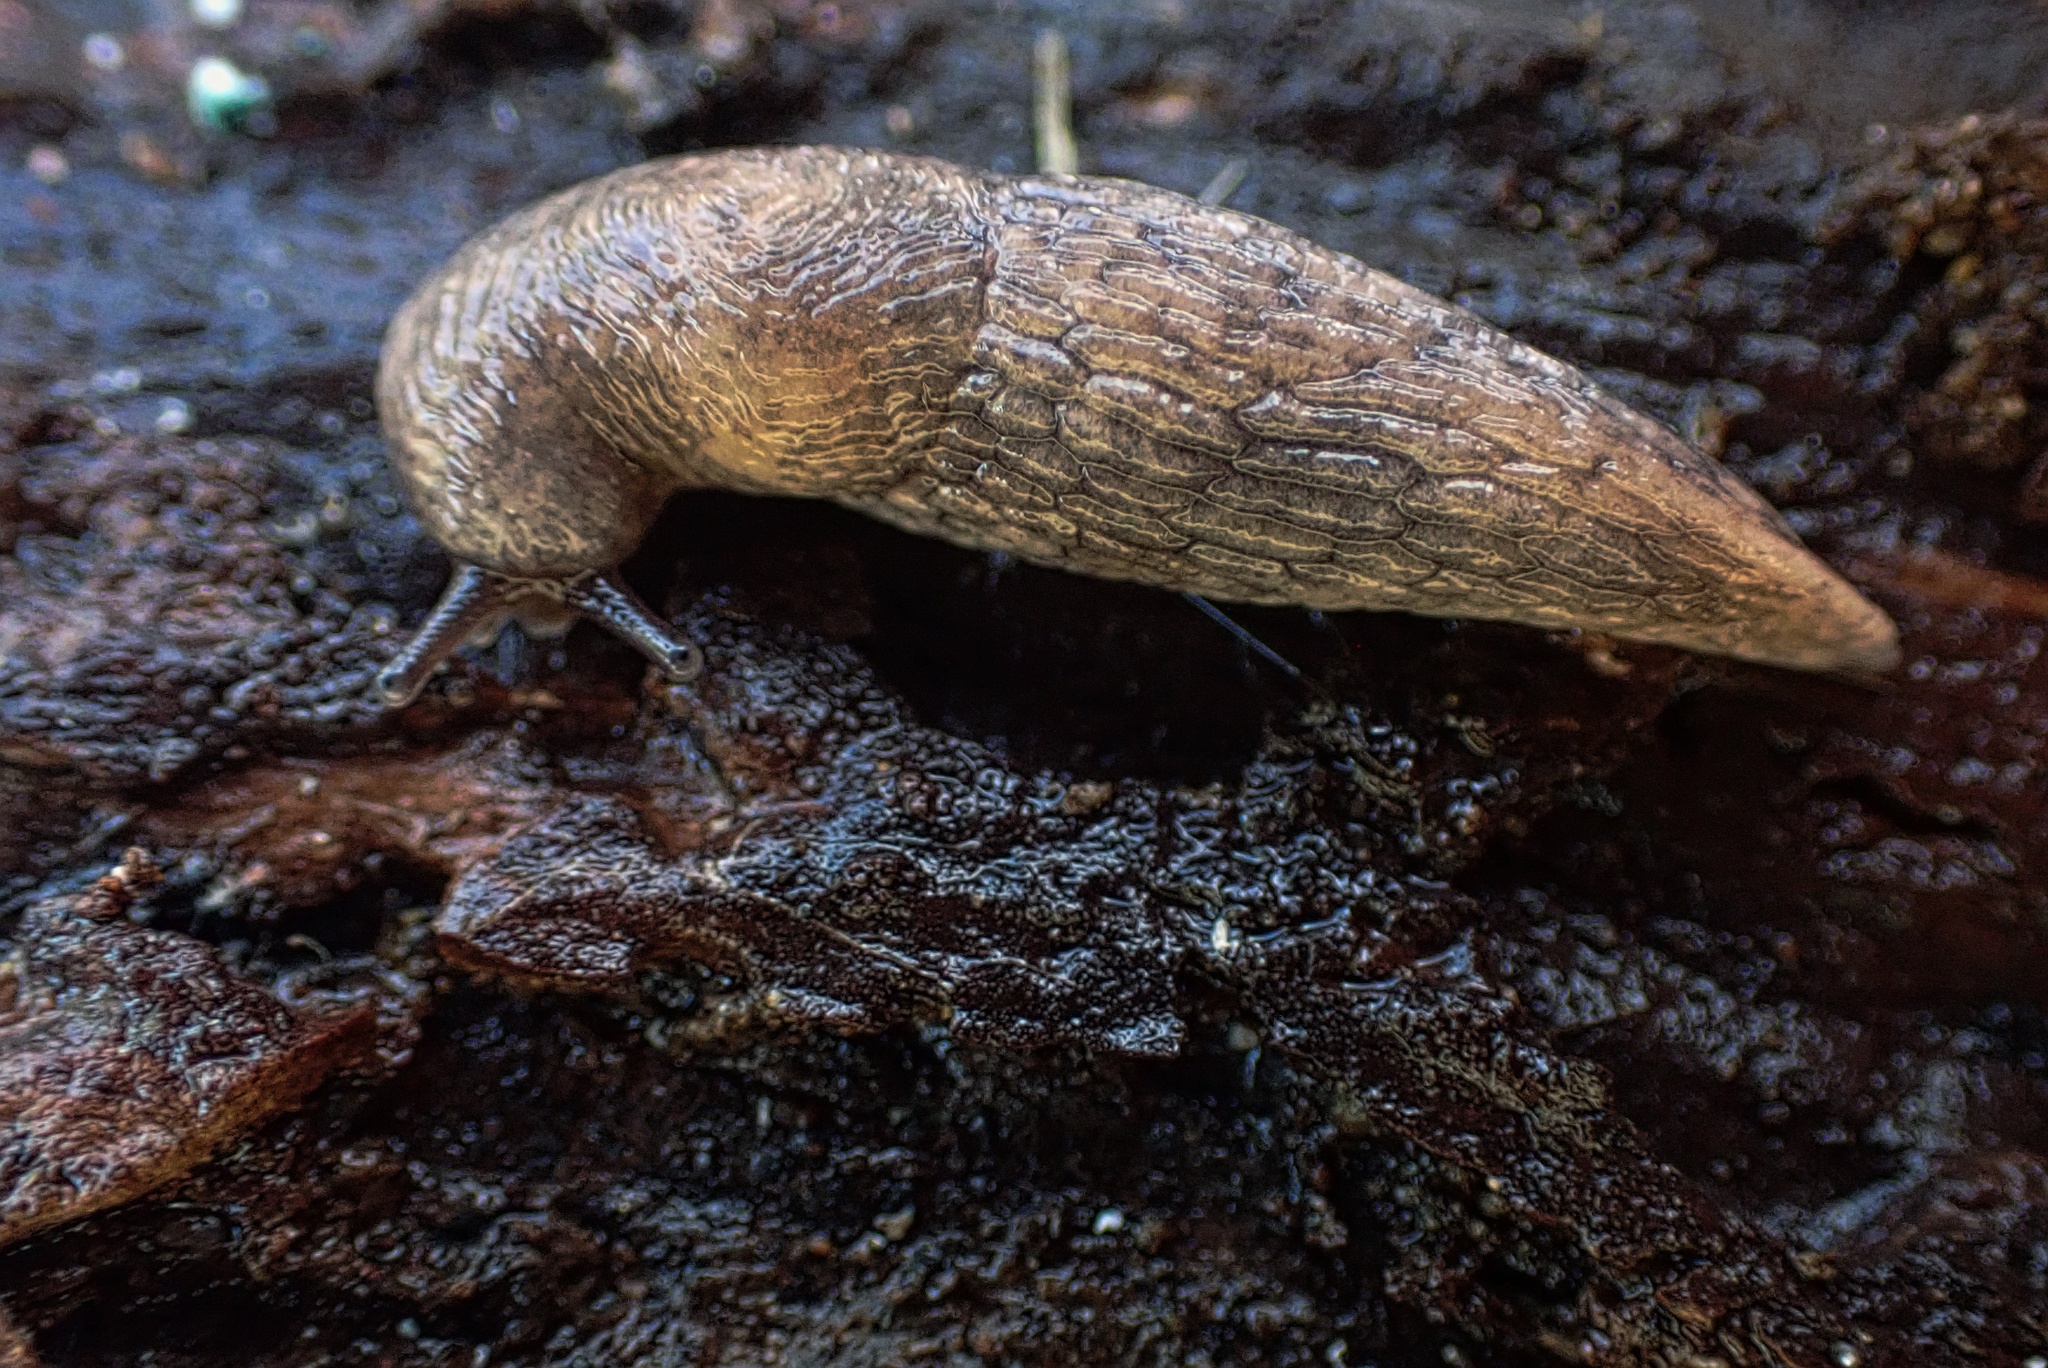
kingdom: Animalia
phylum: Mollusca
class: Gastropoda
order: Stylommatophora
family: Agriolimacidae
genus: Deroceras
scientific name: Deroceras reticulatum
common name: Gray field slug
